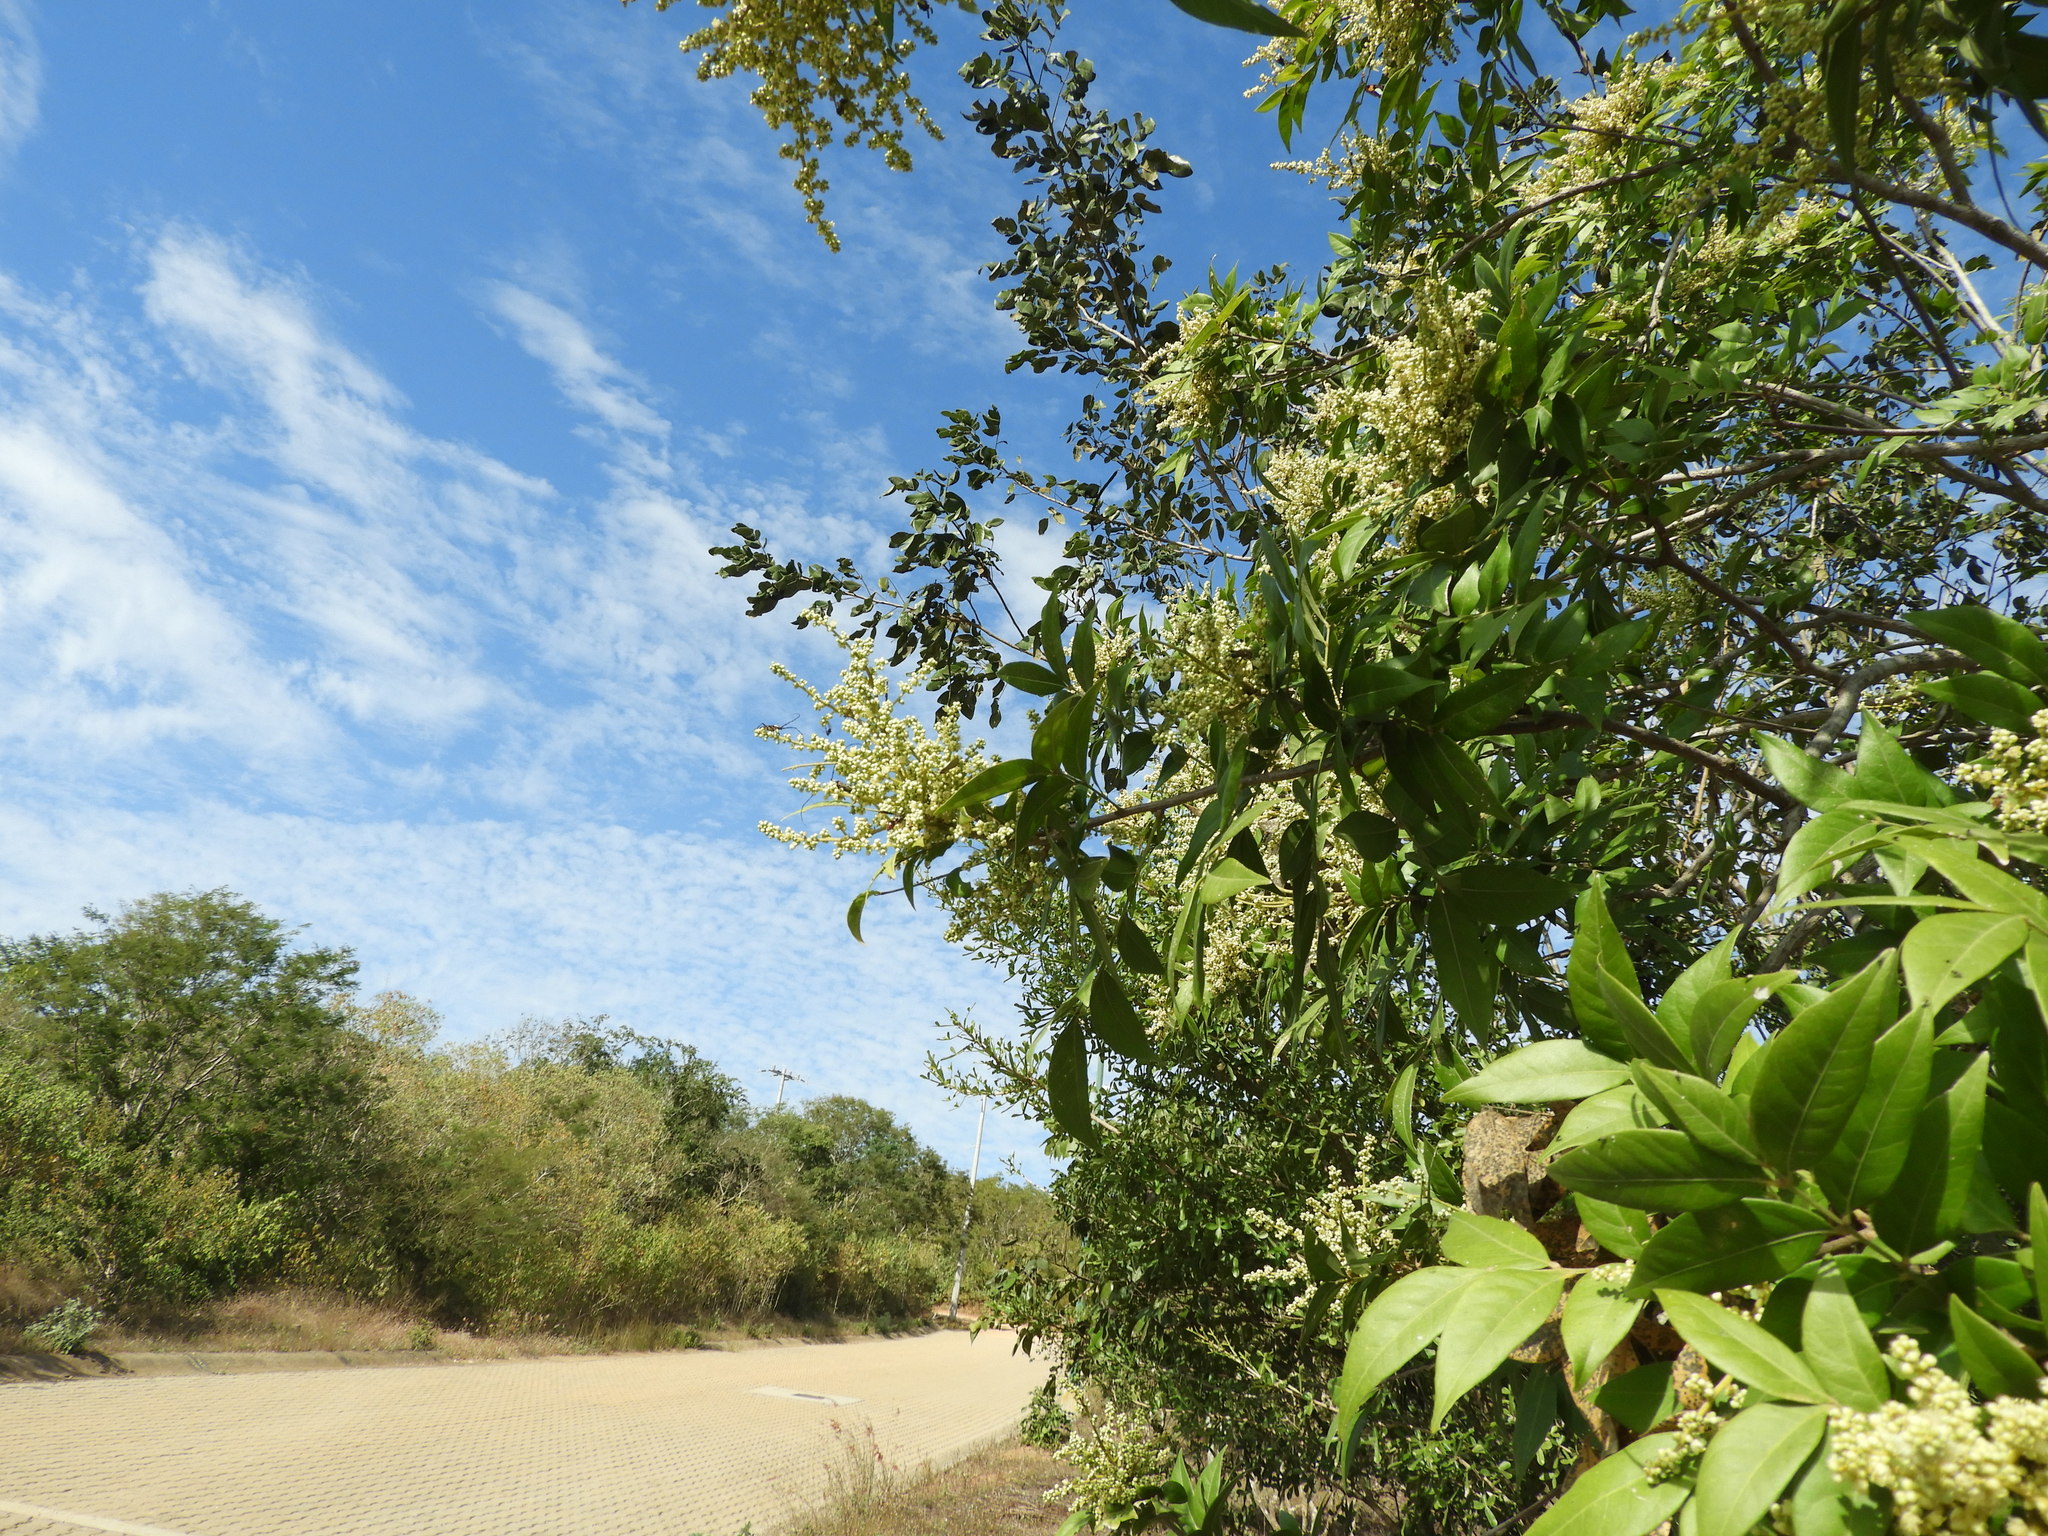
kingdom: Plantae
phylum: Tracheophyta
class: Magnoliopsida
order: Sapindales
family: Sapindaceae
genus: Sapindus
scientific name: Sapindus drummondii
